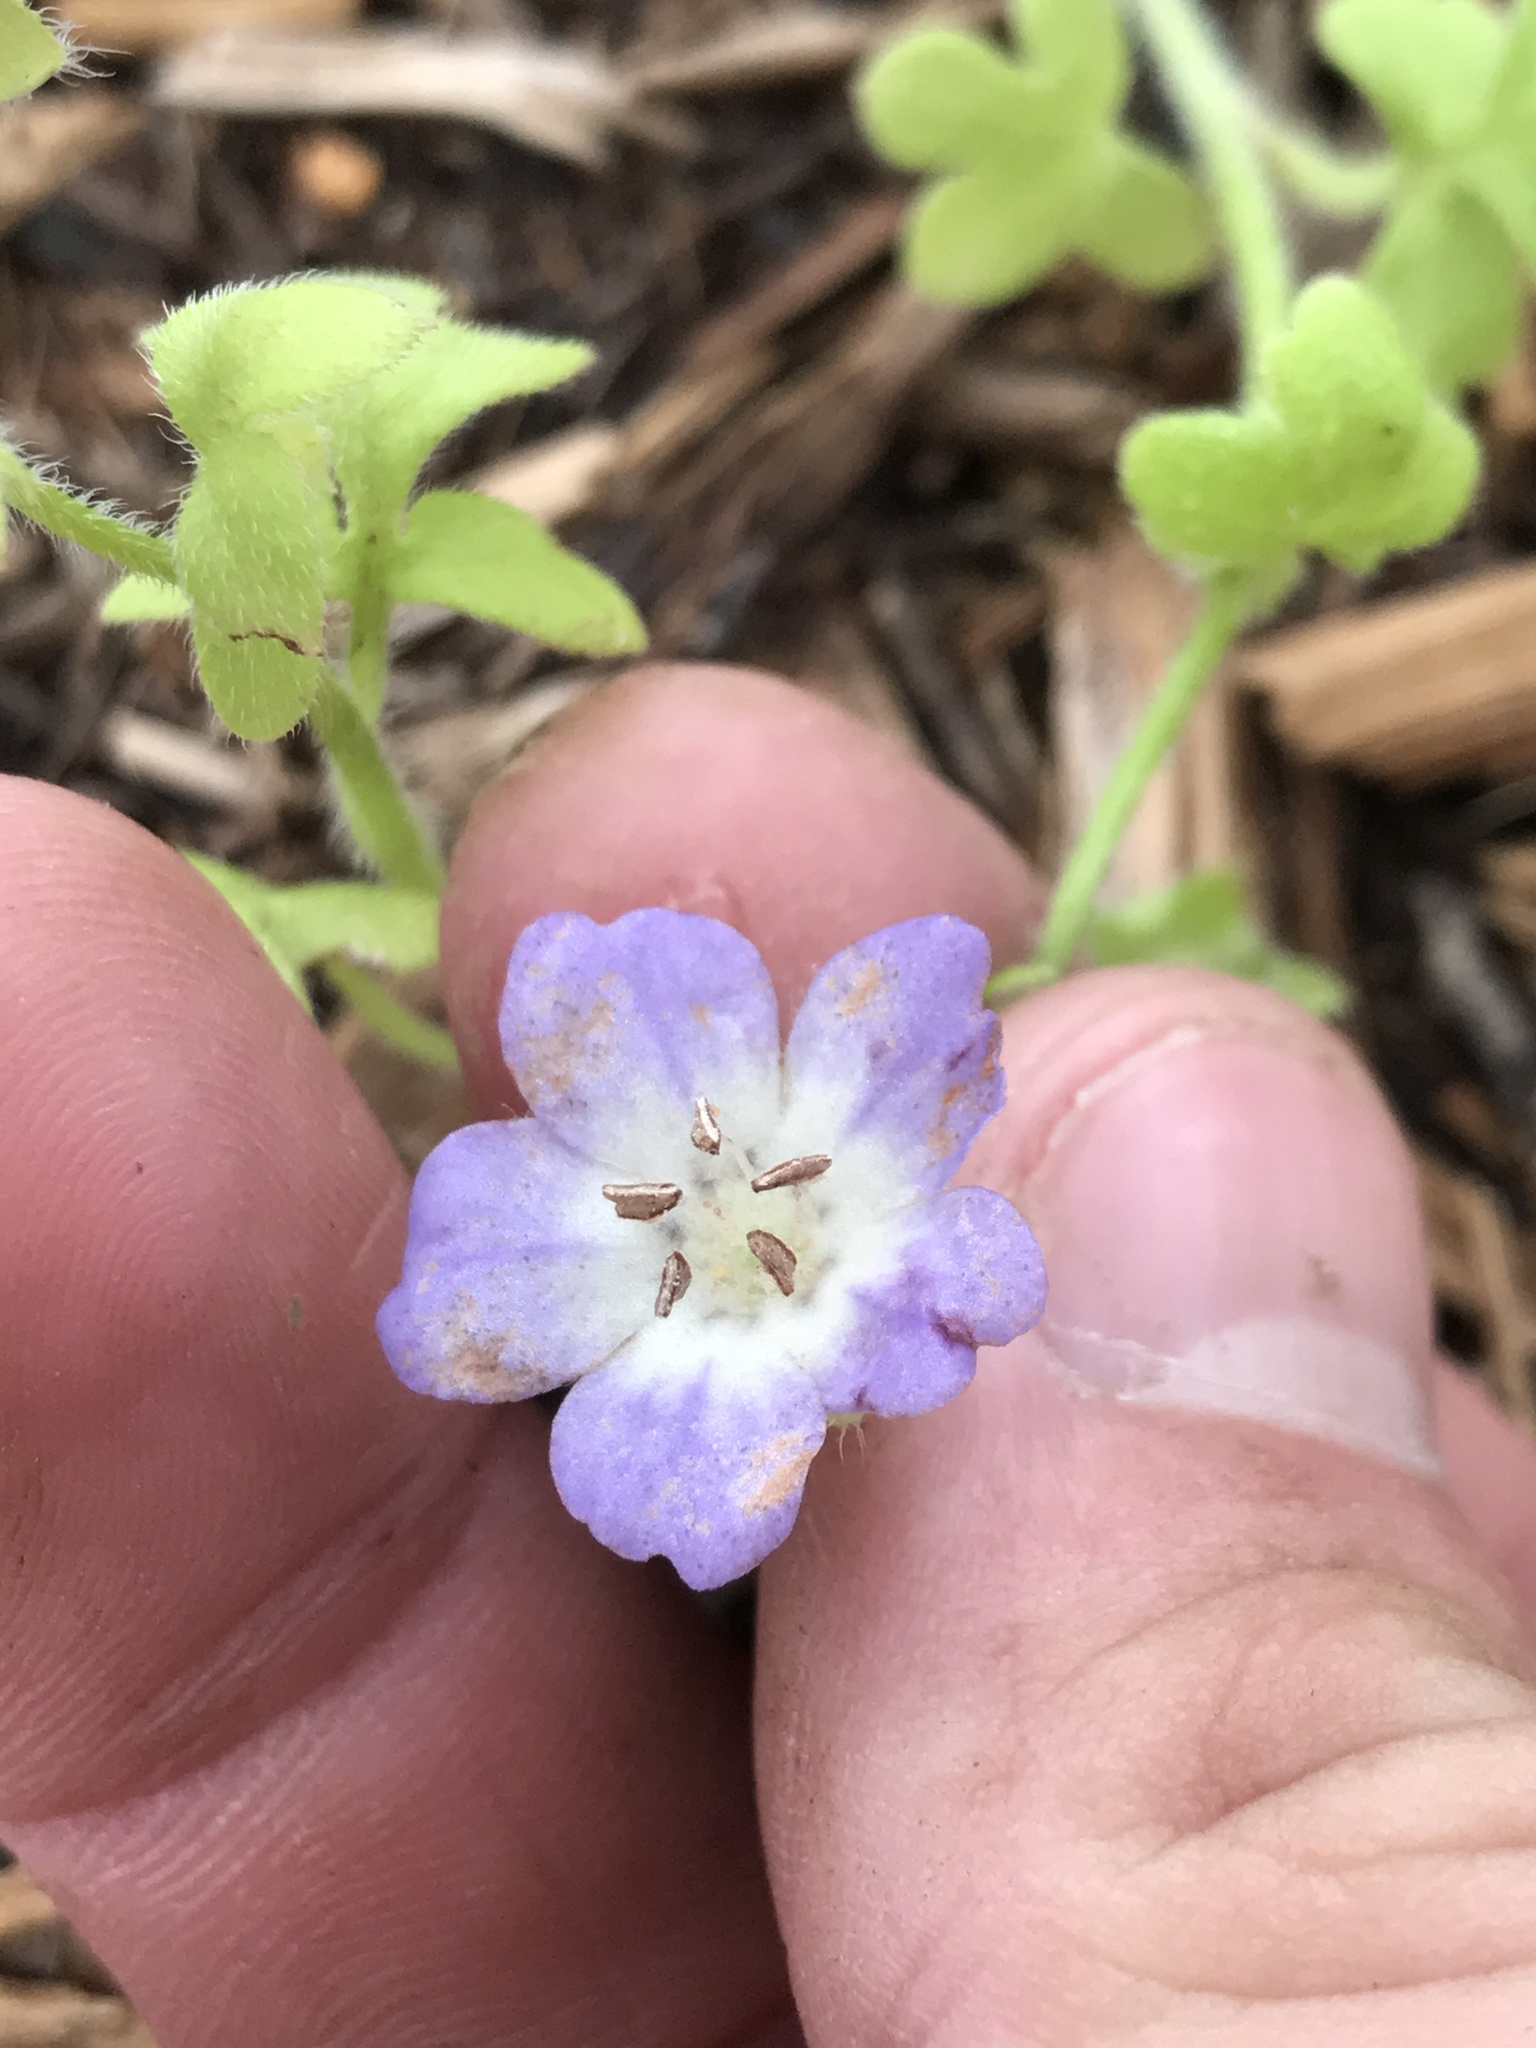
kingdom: Plantae
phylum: Tracheophyta
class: Magnoliopsida
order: Boraginales
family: Hydrophyllaceae
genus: Nemophila
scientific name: Nemophila phacelioides
